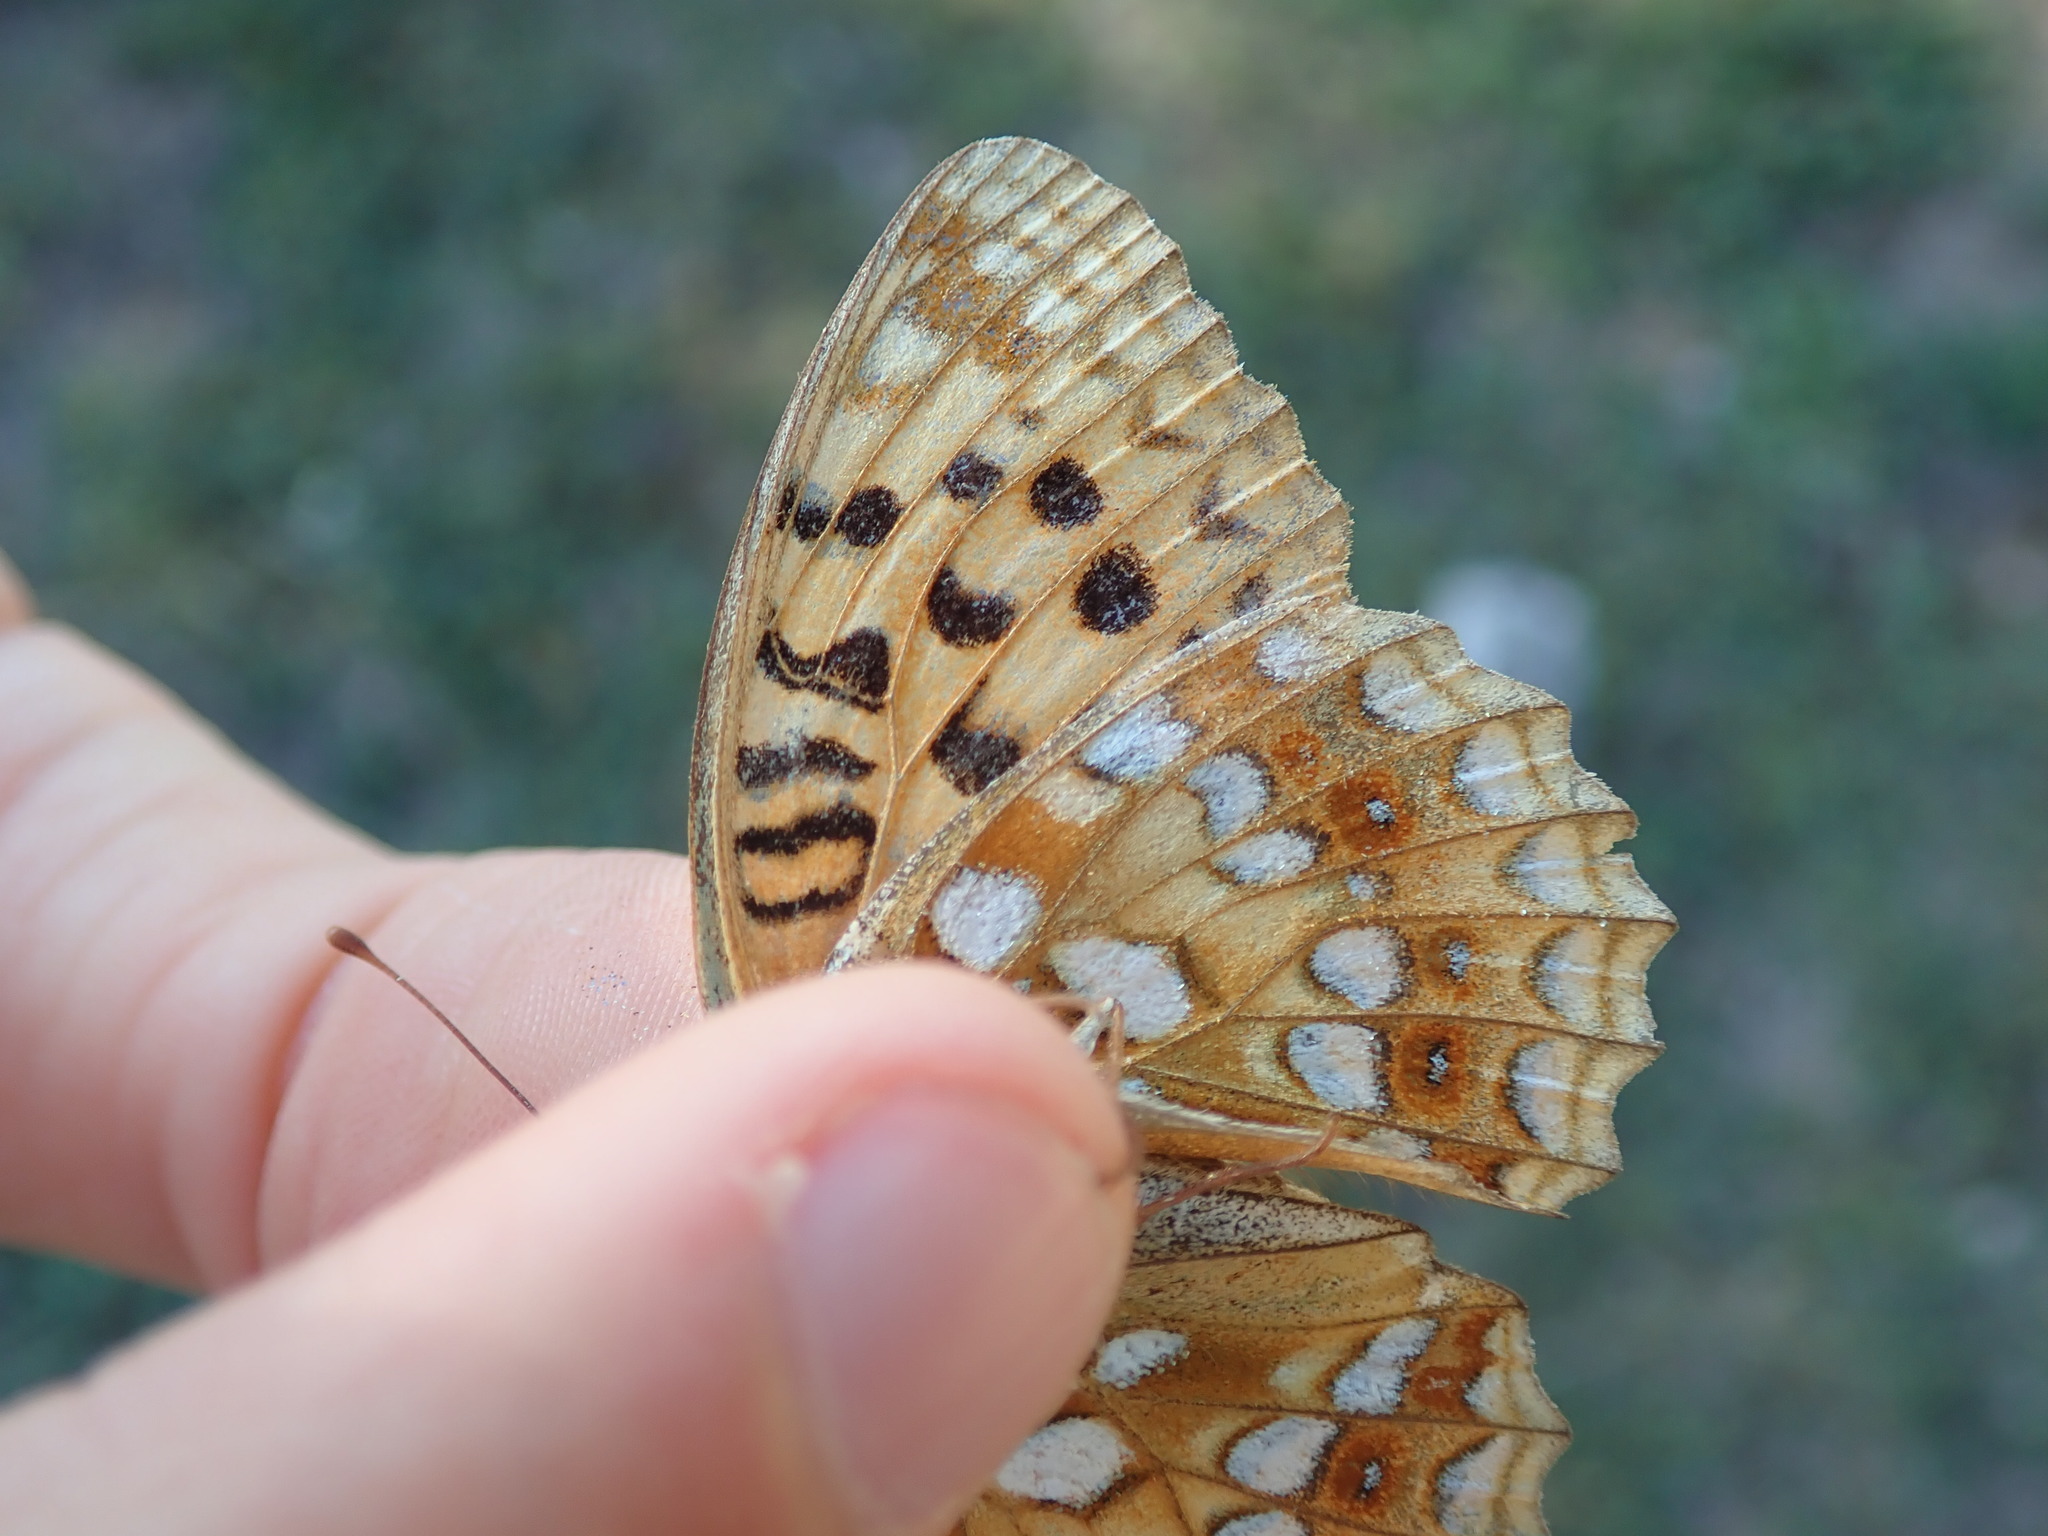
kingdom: Animalia
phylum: Arthropoda
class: Insecta
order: Lepidoptera
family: Nymphalidae
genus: Fabriciana
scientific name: Fabriciana adippe
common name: High brown fritillary
